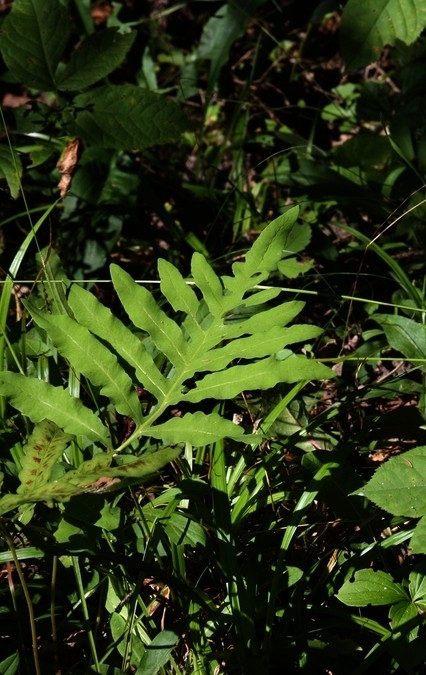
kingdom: Plantae
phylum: Tracheophyta
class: Polypodiopsida
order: Polypodiales
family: Onocleaceae
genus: Onoclea
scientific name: Onoclea sensibilis
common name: Sensitive fern
